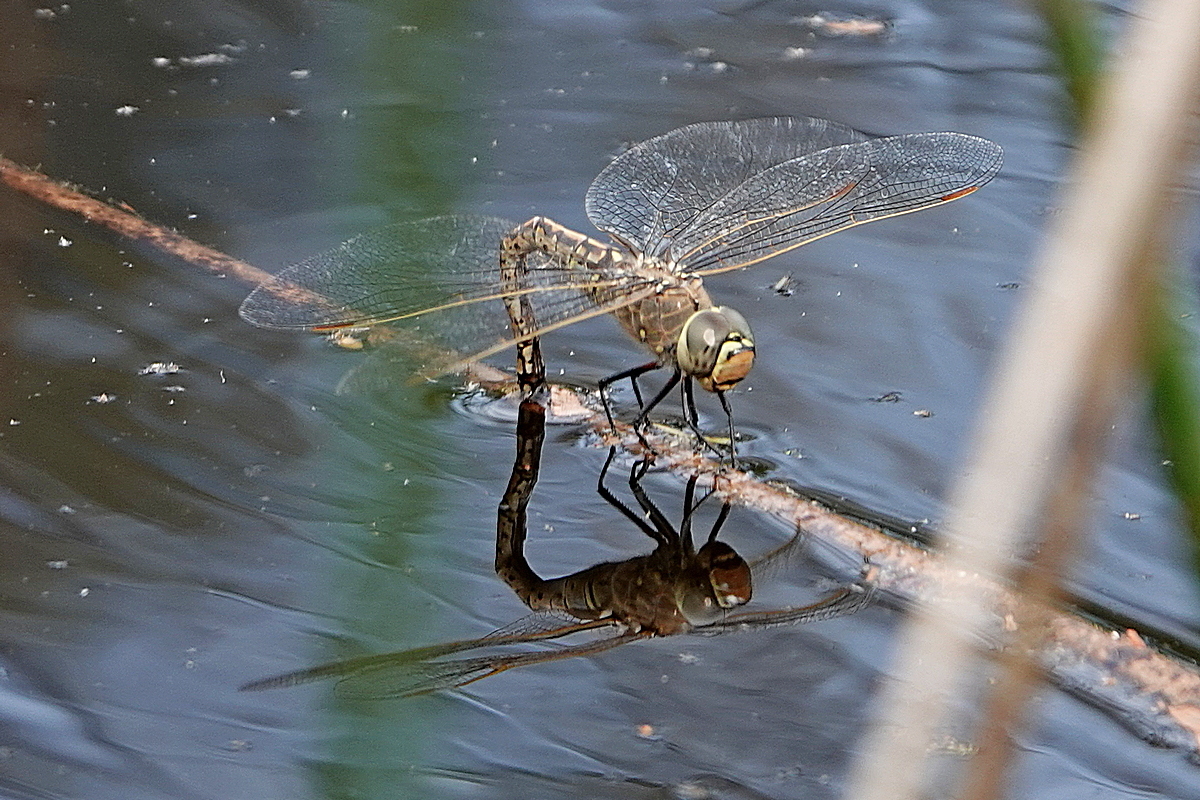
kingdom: Animalia
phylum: Arthropoda
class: Insecta
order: Odonata
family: Aeshnidae
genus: Anax
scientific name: Anax papuensis
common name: Australian emperor
